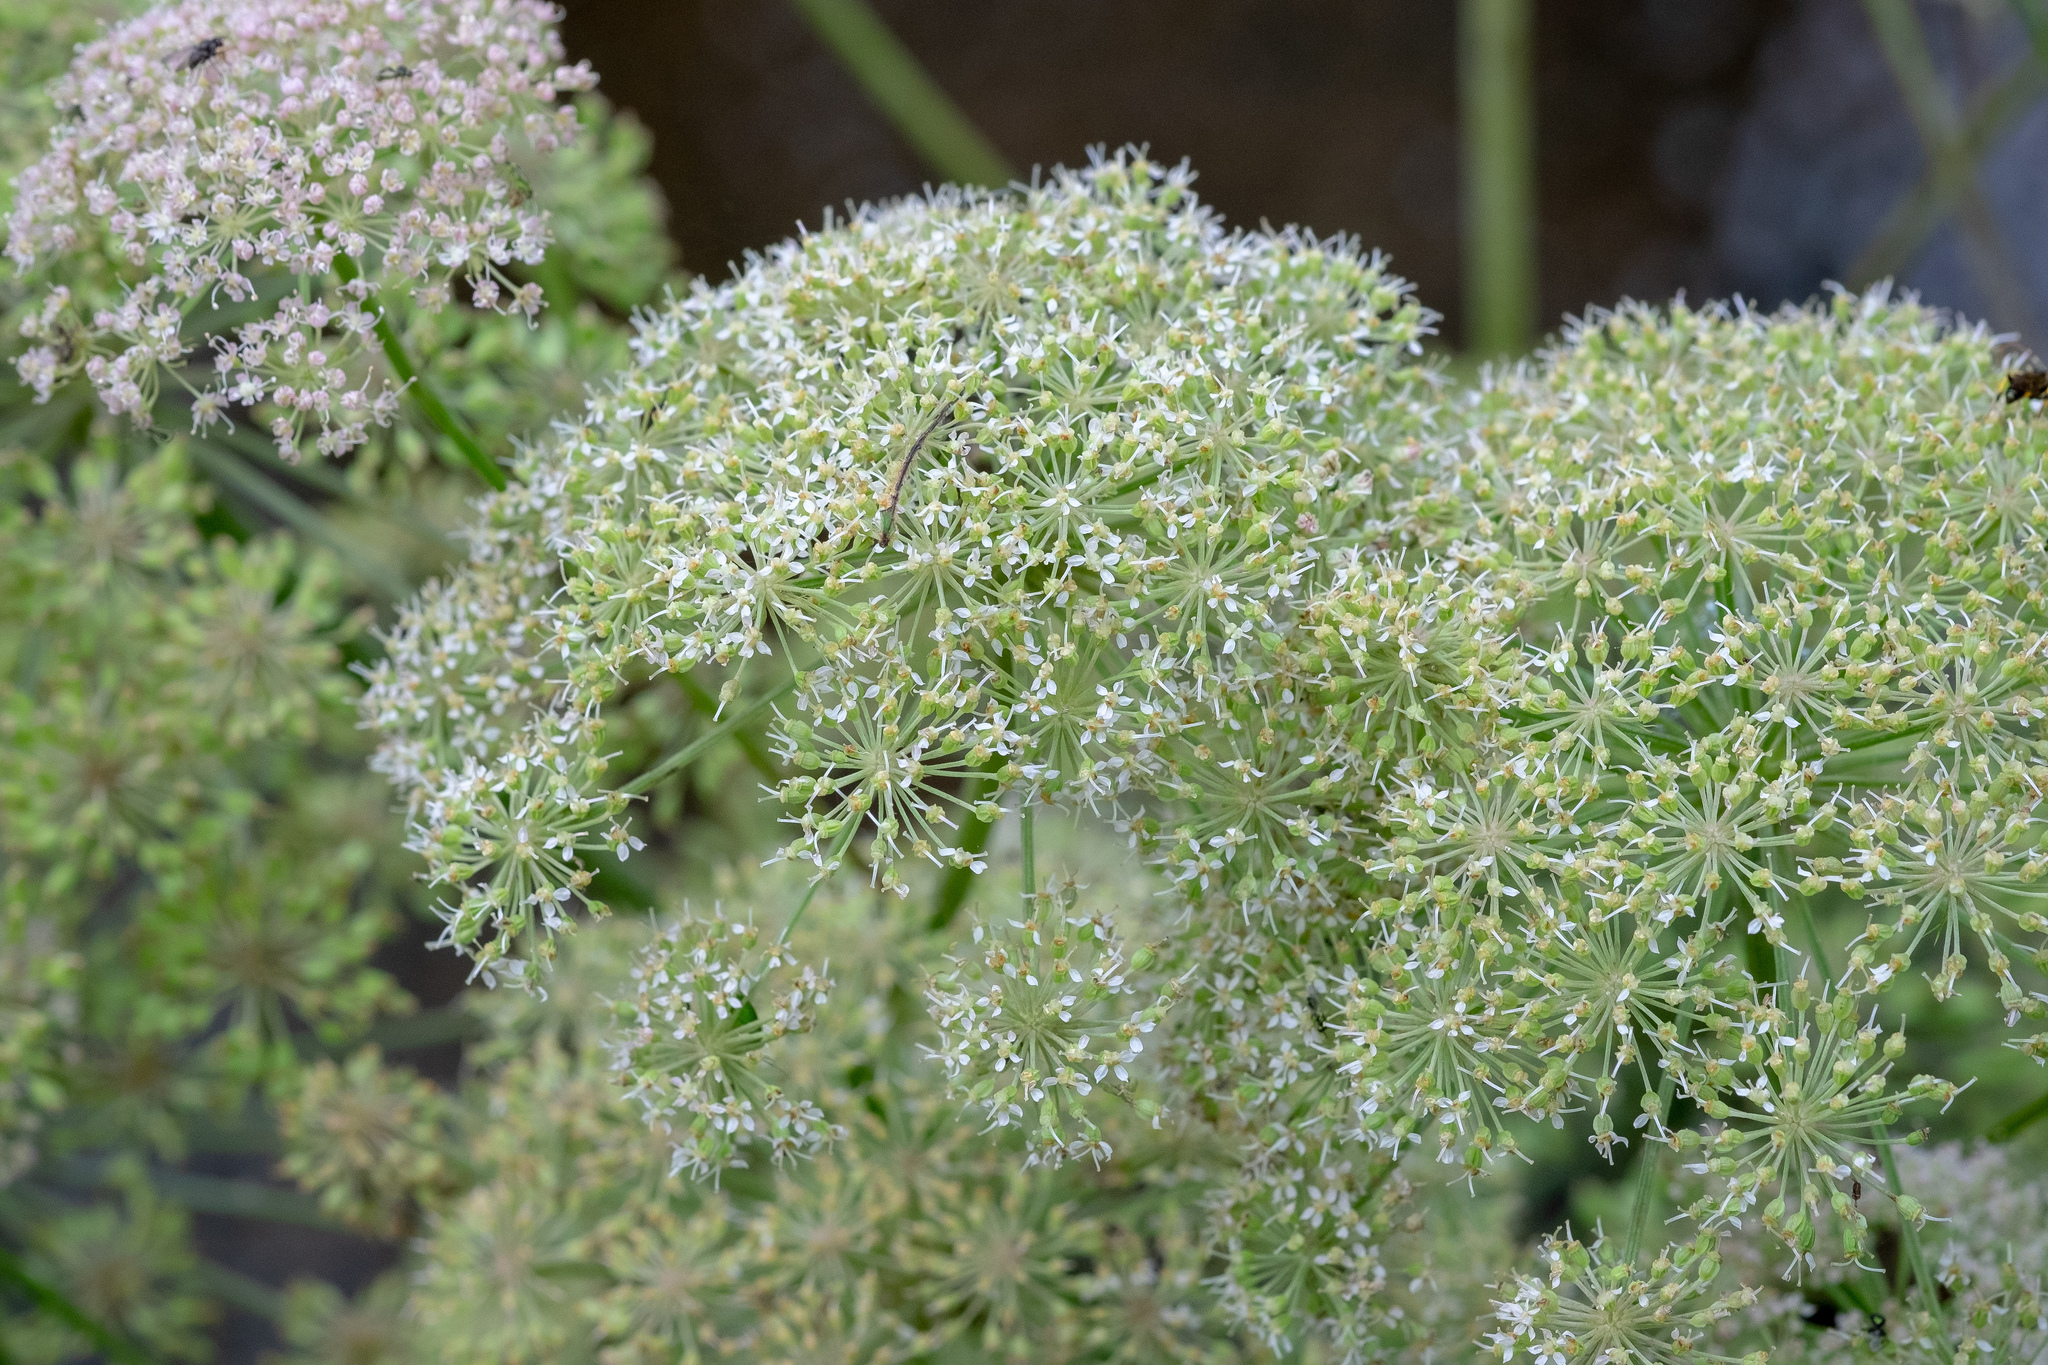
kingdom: Plantae
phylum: Tracheophyta
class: Magnoliopsida
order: Apiales
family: Apiaceae
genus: Angelica
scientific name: Angelica sylvestris
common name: Wild angelica
